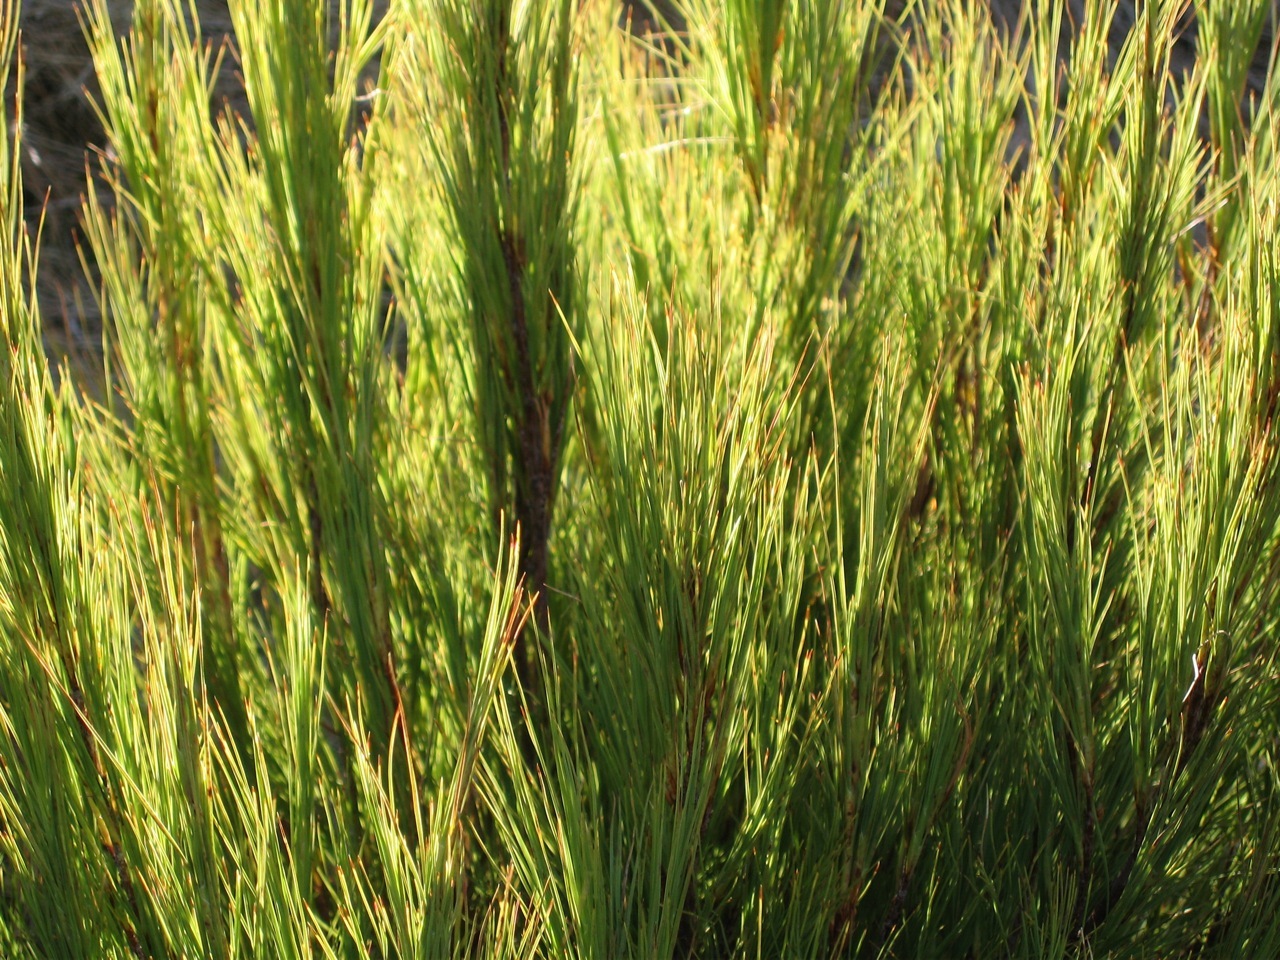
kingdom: Plantae
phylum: Tracheophyta
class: Magnoliopsida
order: Ericales
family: Ericaceae
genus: Dracophyllum
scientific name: Dracophyllum acerosum
